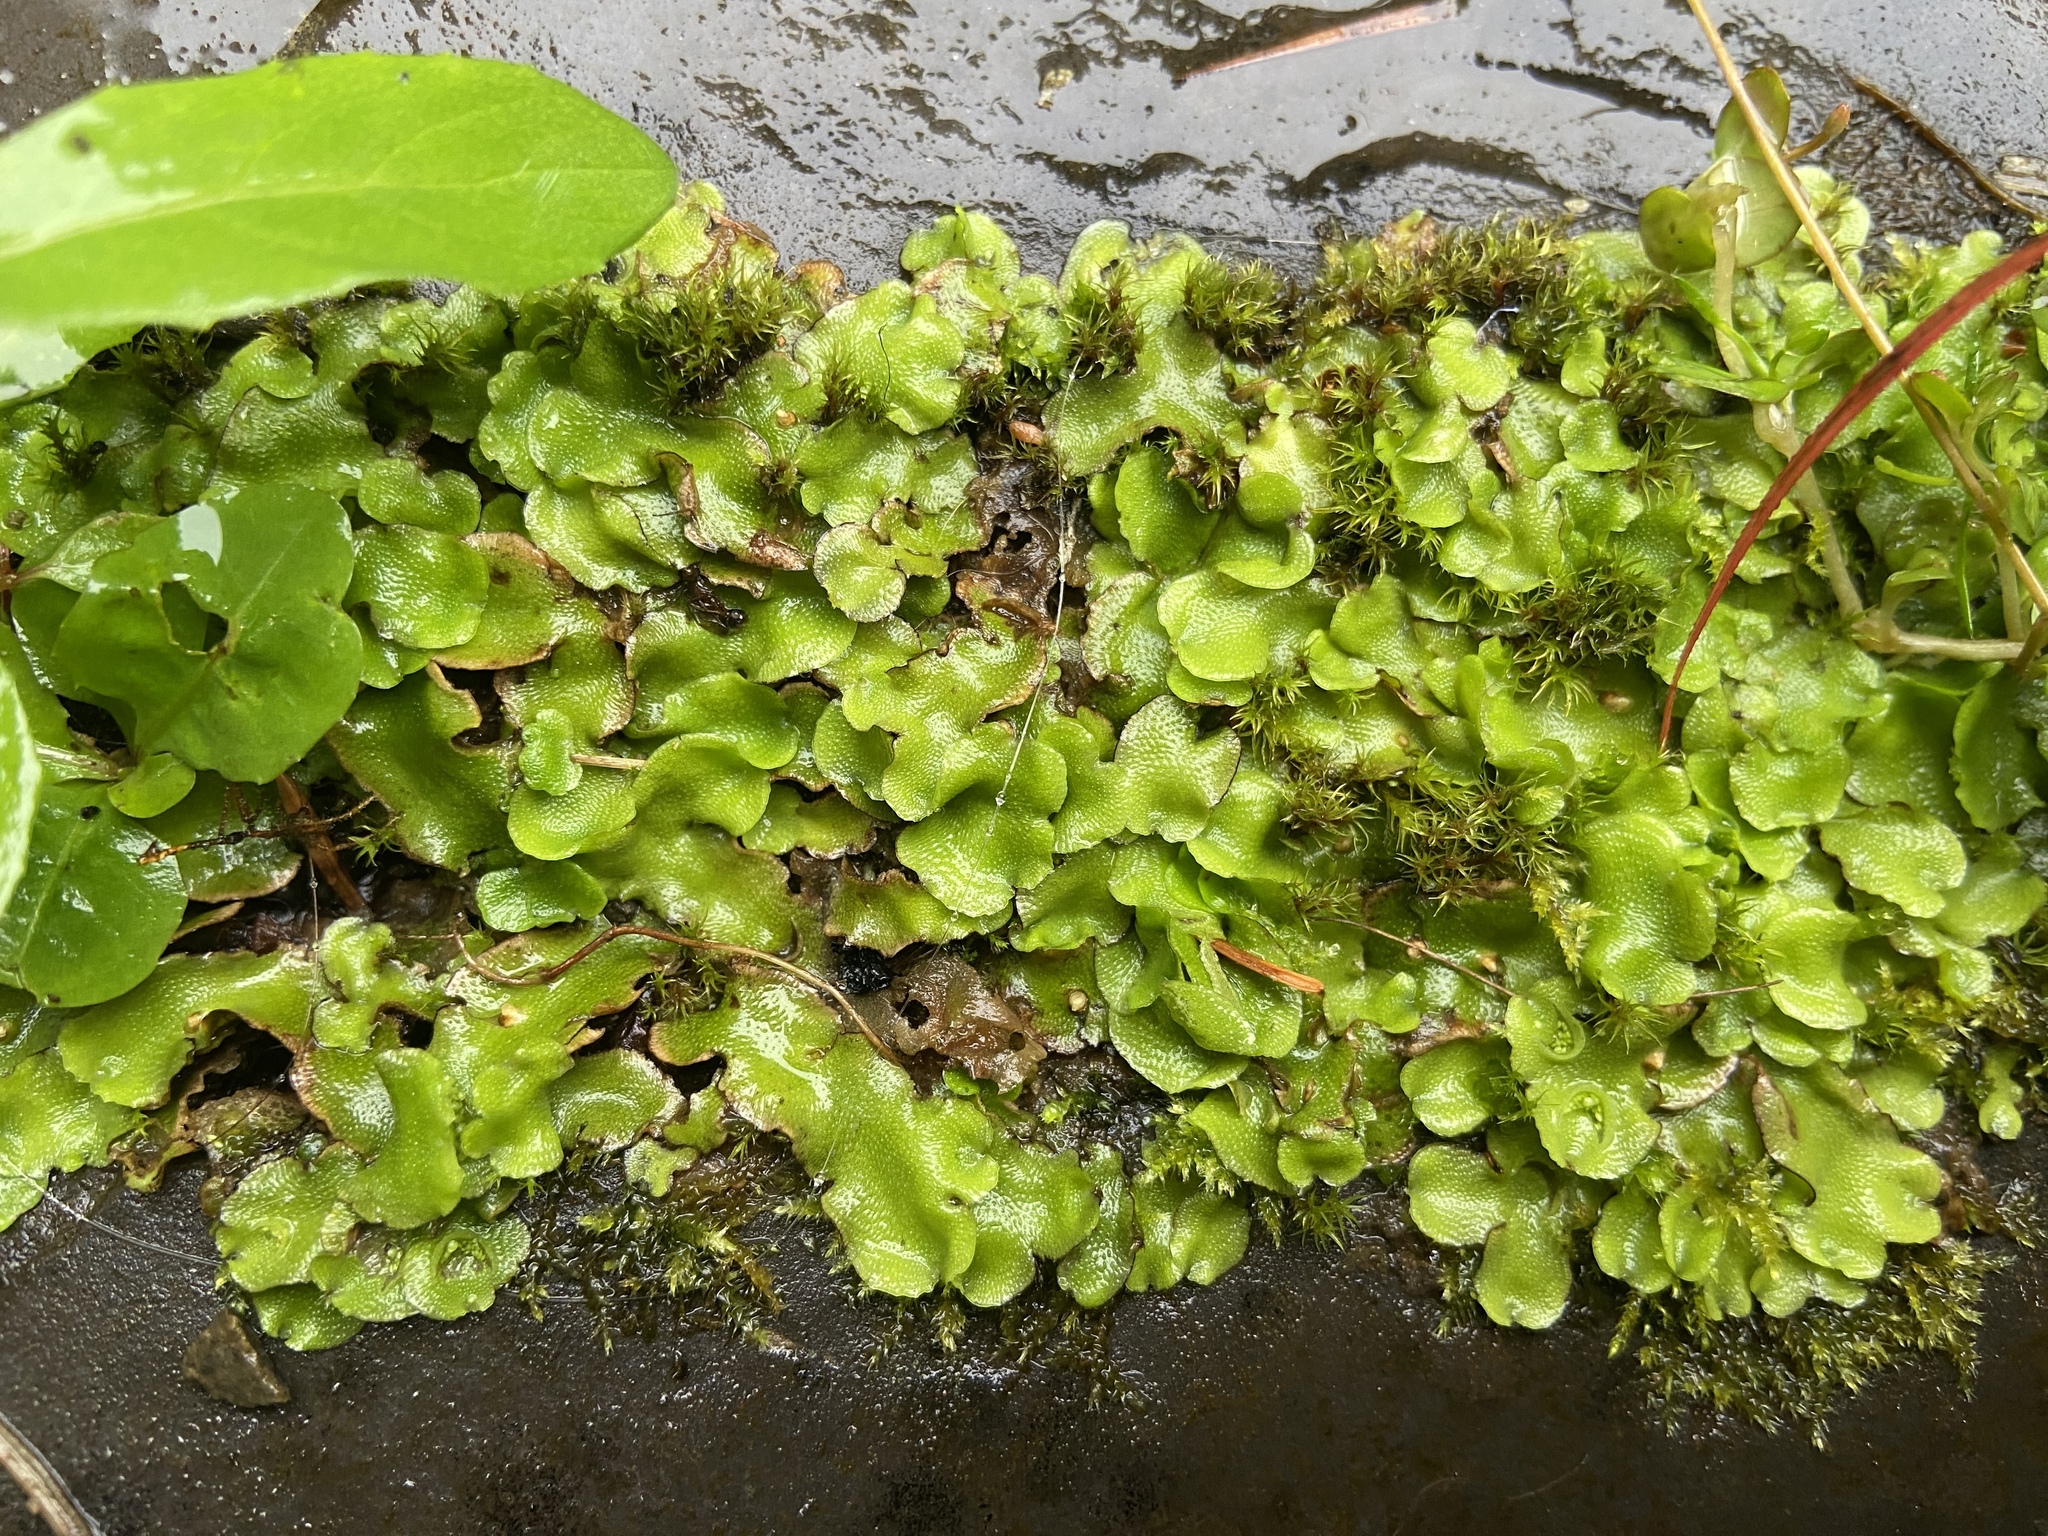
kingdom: Plantae
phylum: Marchantiophyta
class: Marchantiopsida
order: Lunulariales
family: Lunulariaceae
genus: Lunularia
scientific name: Lunularia cruciata
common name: Crescent-cup liverwort
